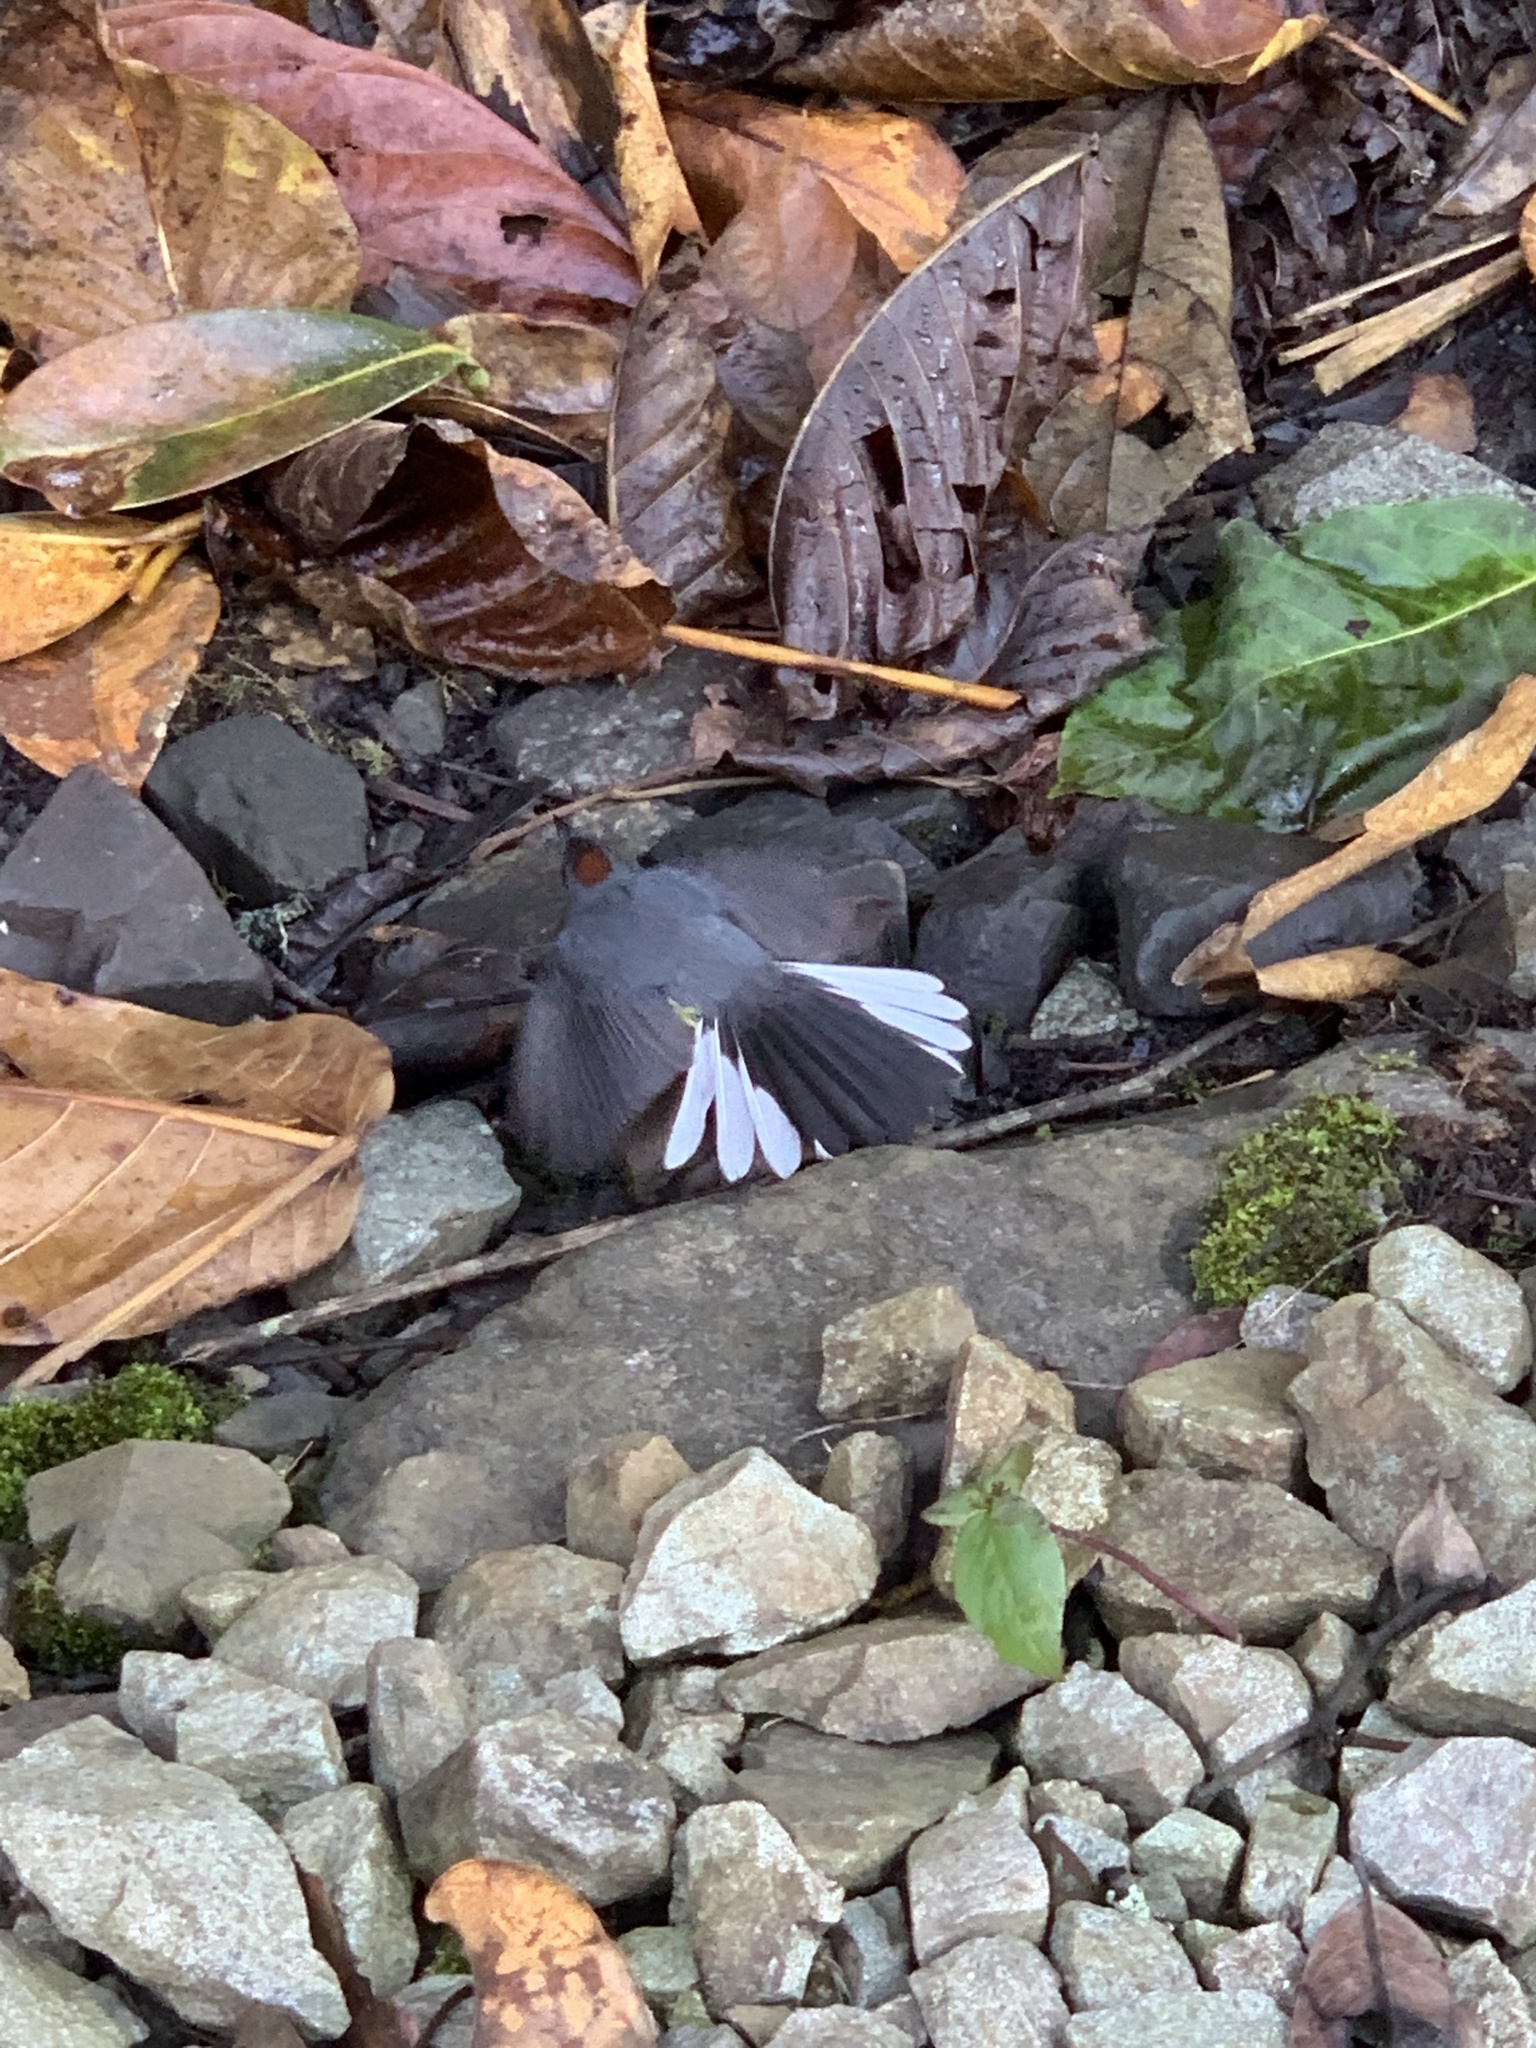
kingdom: Animalia
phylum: Chordata
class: Aves
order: Passeriformes
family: Parulidae
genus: Myioborus
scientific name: Myioborus miniatus
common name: Slate-throated redstart
